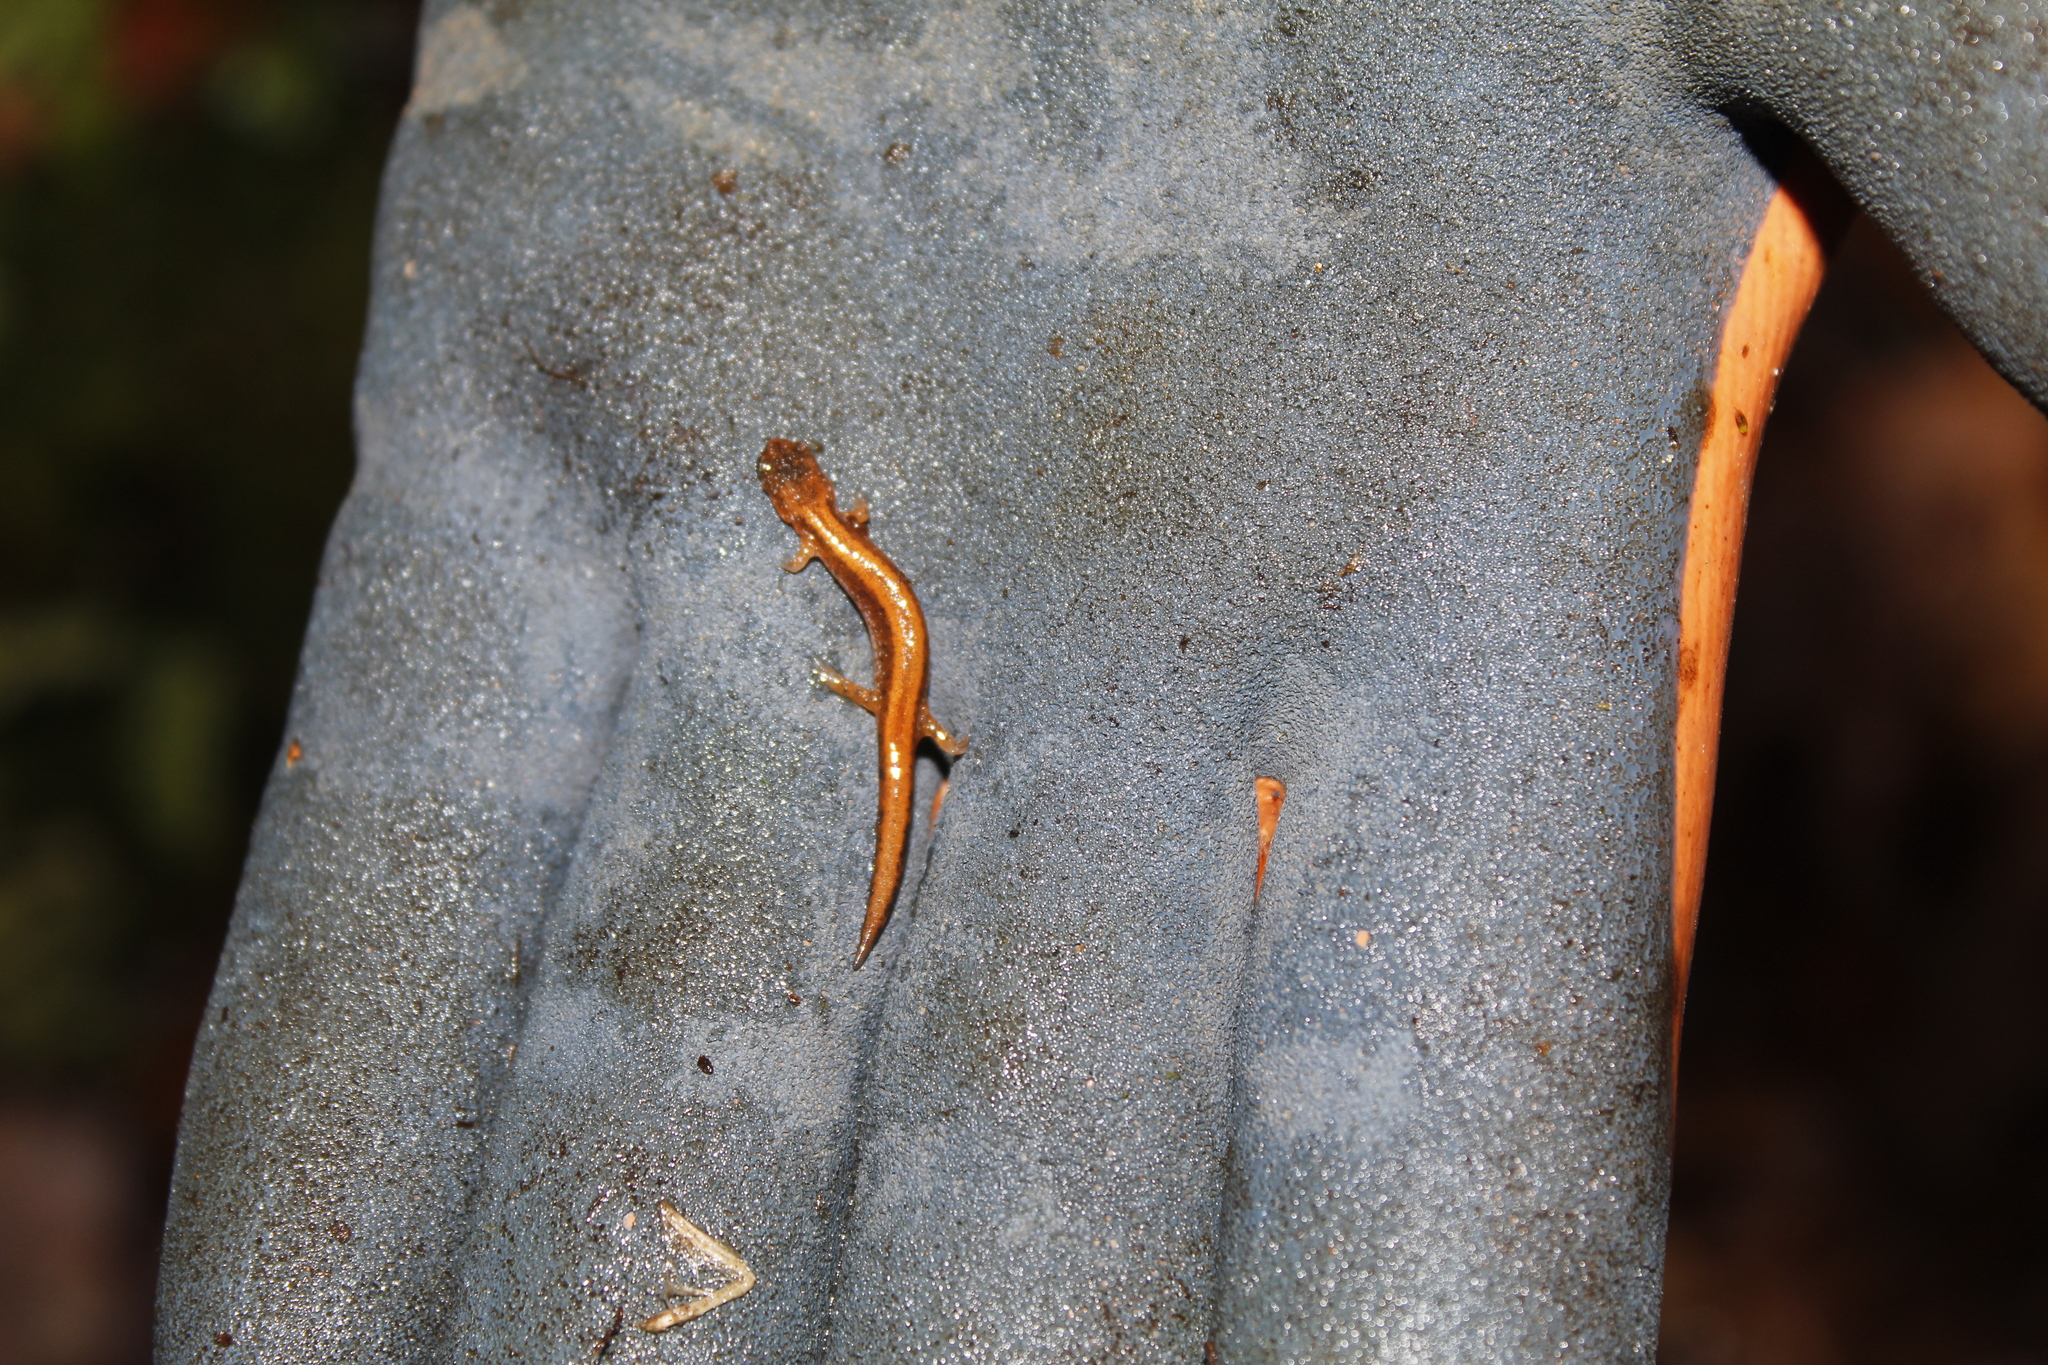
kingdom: Animalia
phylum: Chordata
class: Amphibia
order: Caudata
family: Plethodontidae
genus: Plethodon
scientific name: Plethodon cinereus
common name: Redback salamander
